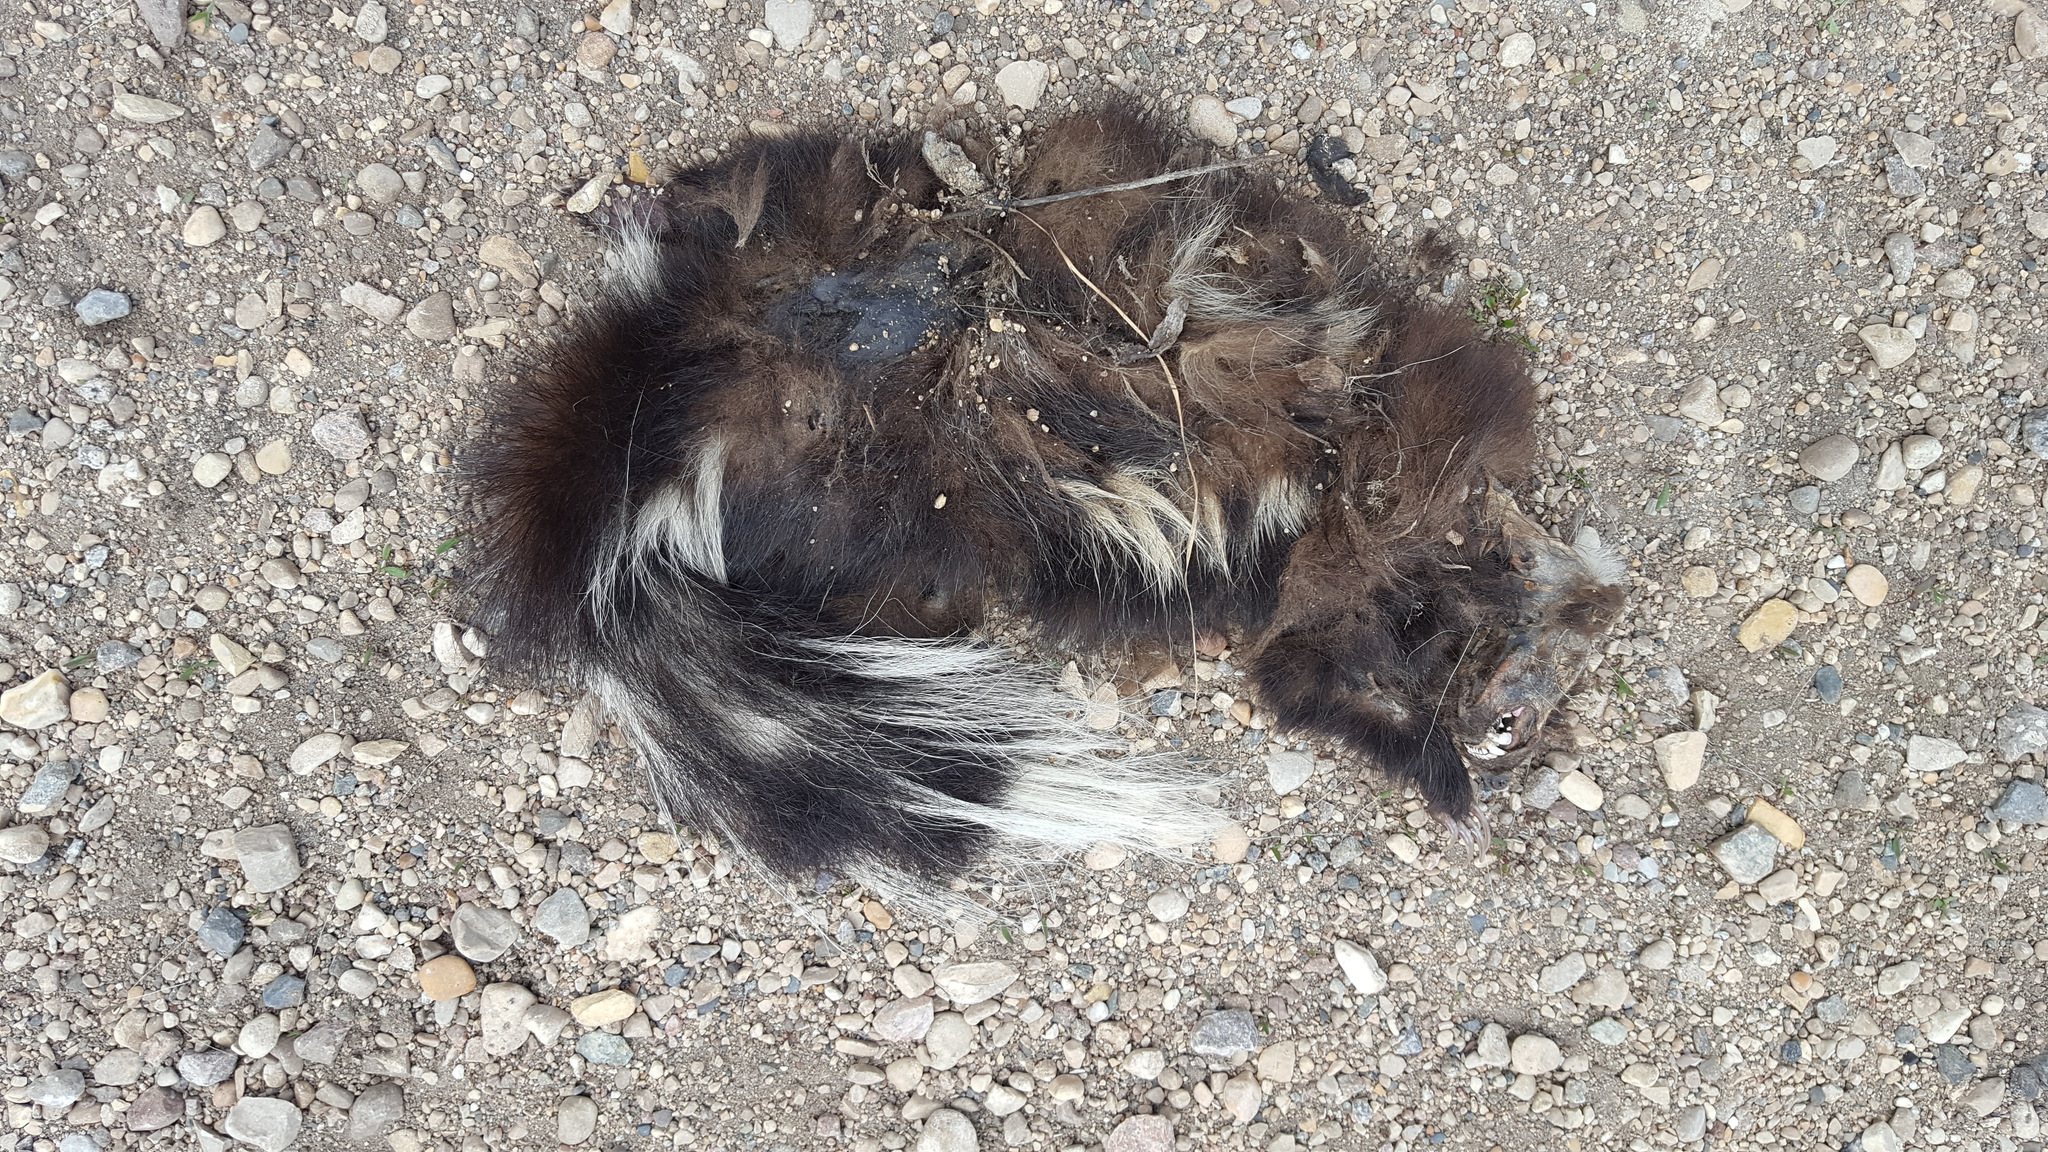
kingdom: Animalia
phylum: Chordata
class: Mammalia
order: Carnivora
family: Mephitidae
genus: Mephitis
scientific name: Mephitis mephitis
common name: Striped skunk
